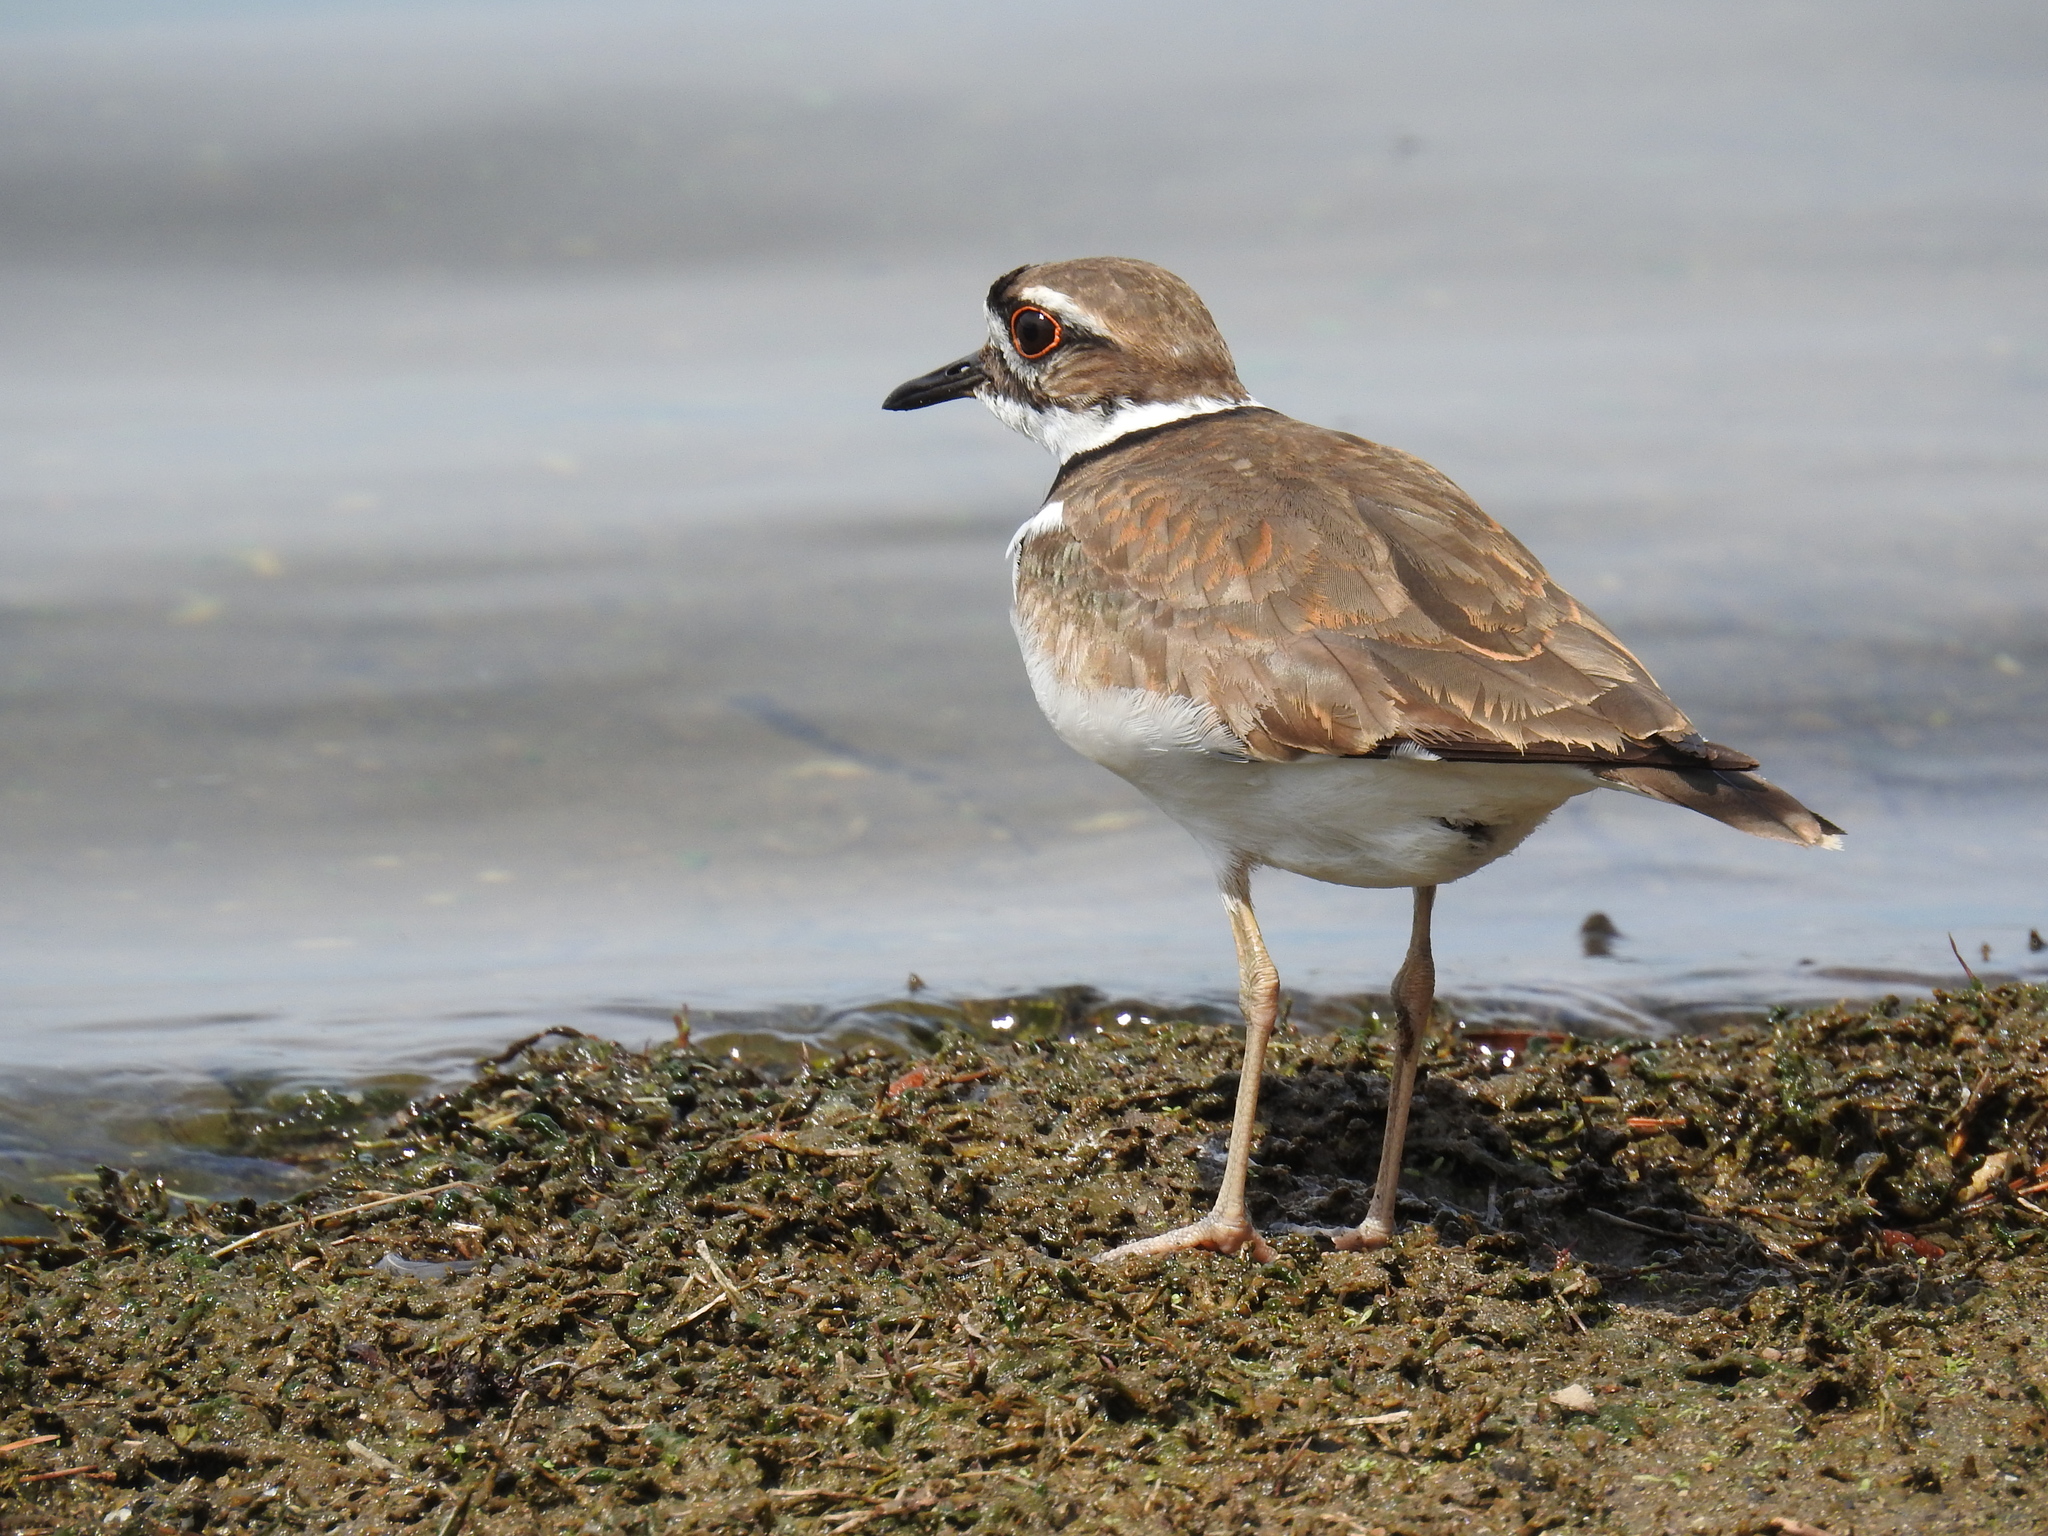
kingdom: Animalia
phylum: Chordata
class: Aves
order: Charadriiformes
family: Charadriidae
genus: Charadrius
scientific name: Charadrius vociferus
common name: Killdeer
